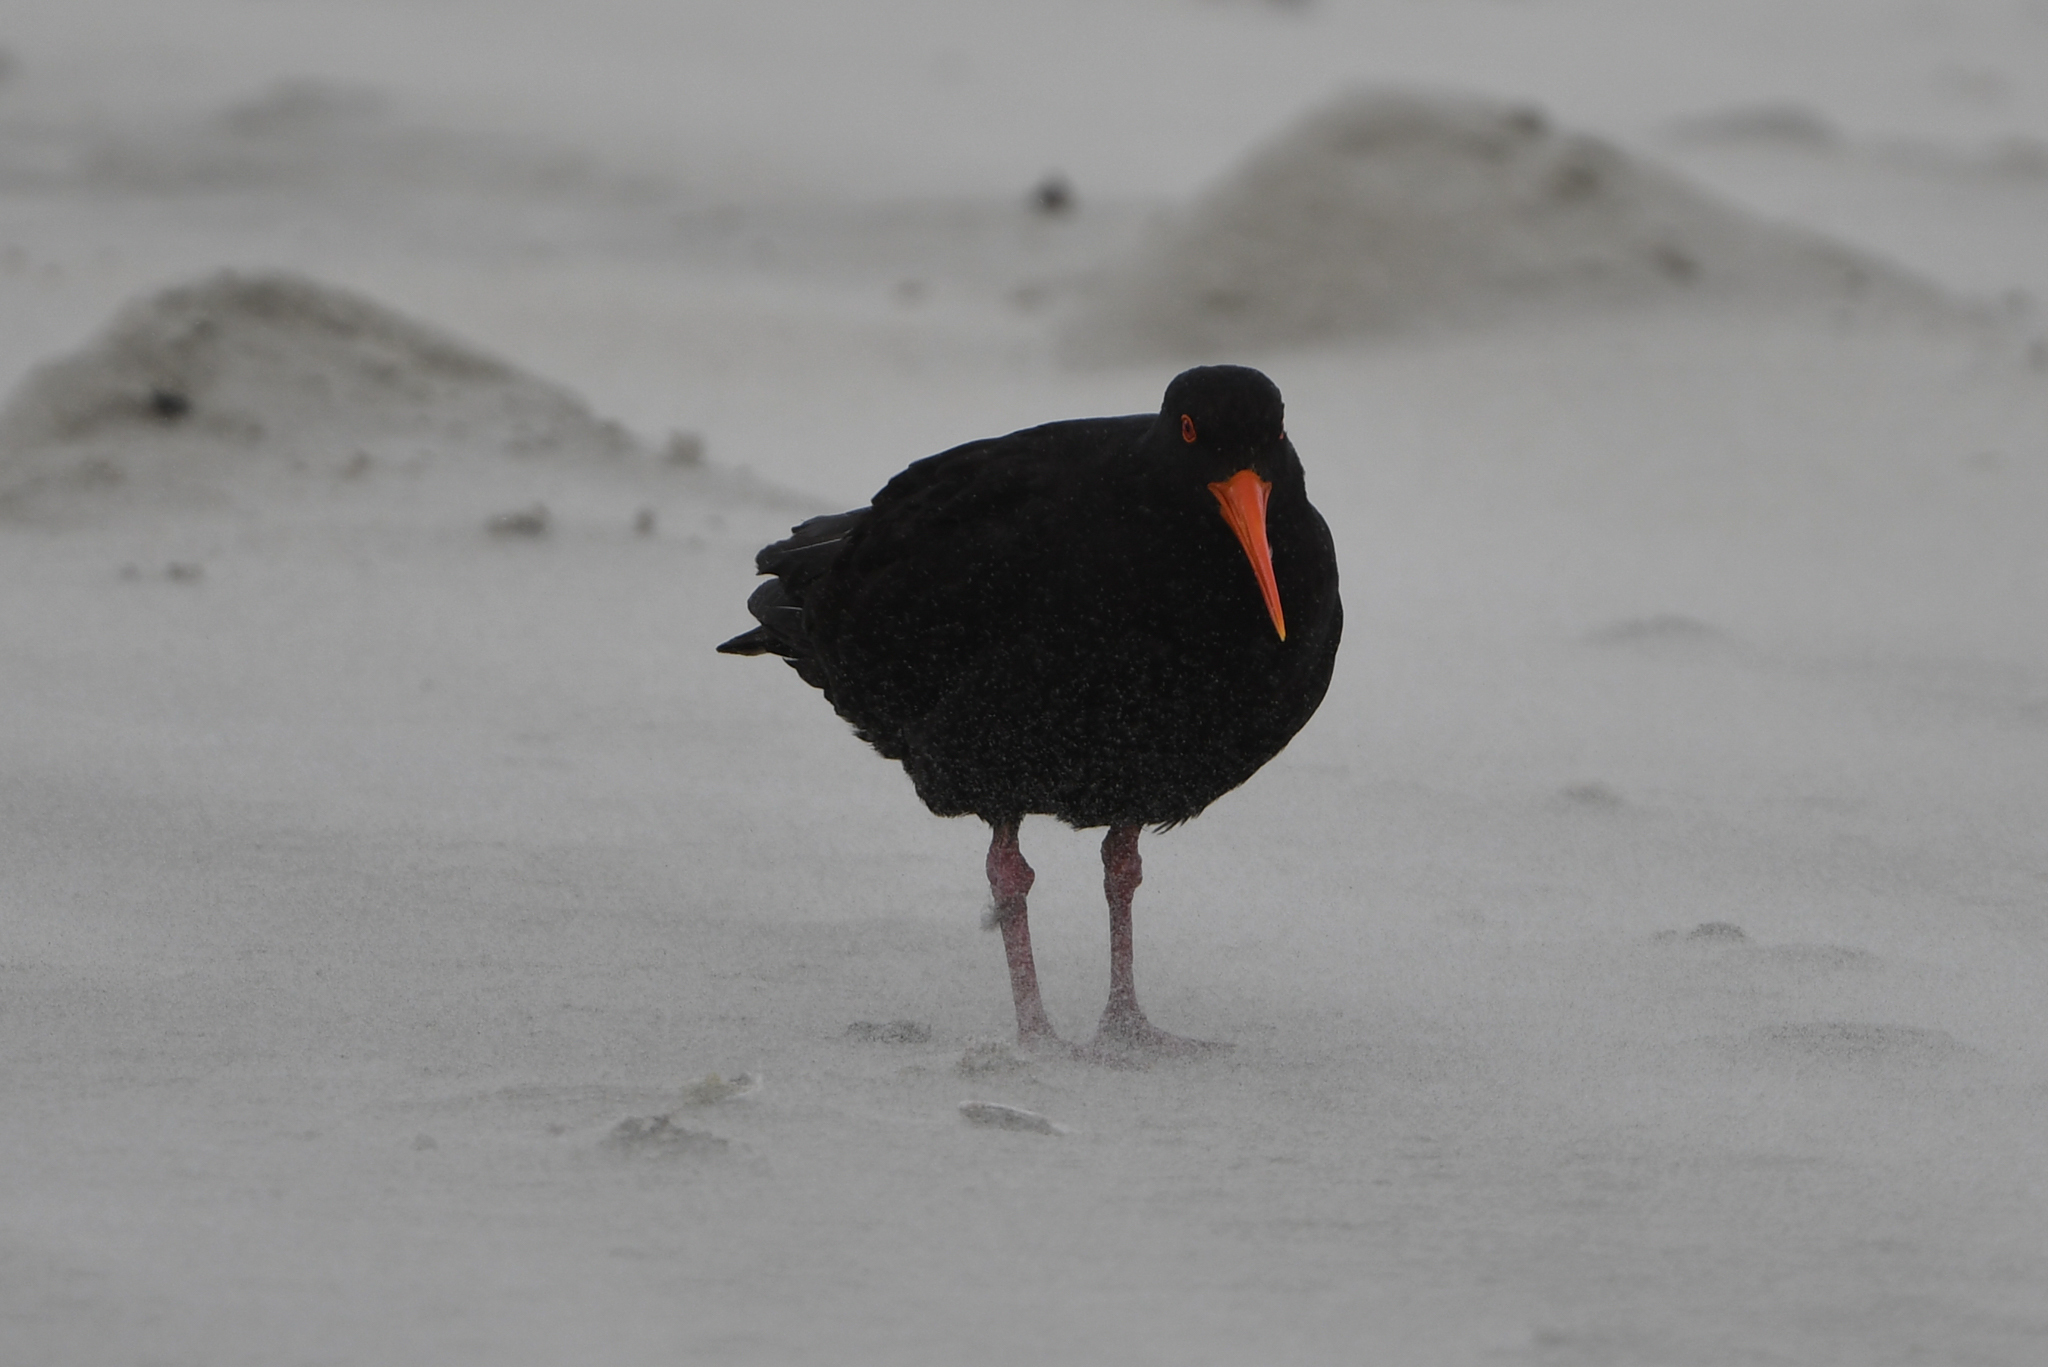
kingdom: Animalia
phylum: Chordata
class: Aves
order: Charadriiformes
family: Haematopodidae
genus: Haematopus
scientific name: Haematopus unicolor
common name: Variable oystercatcher
